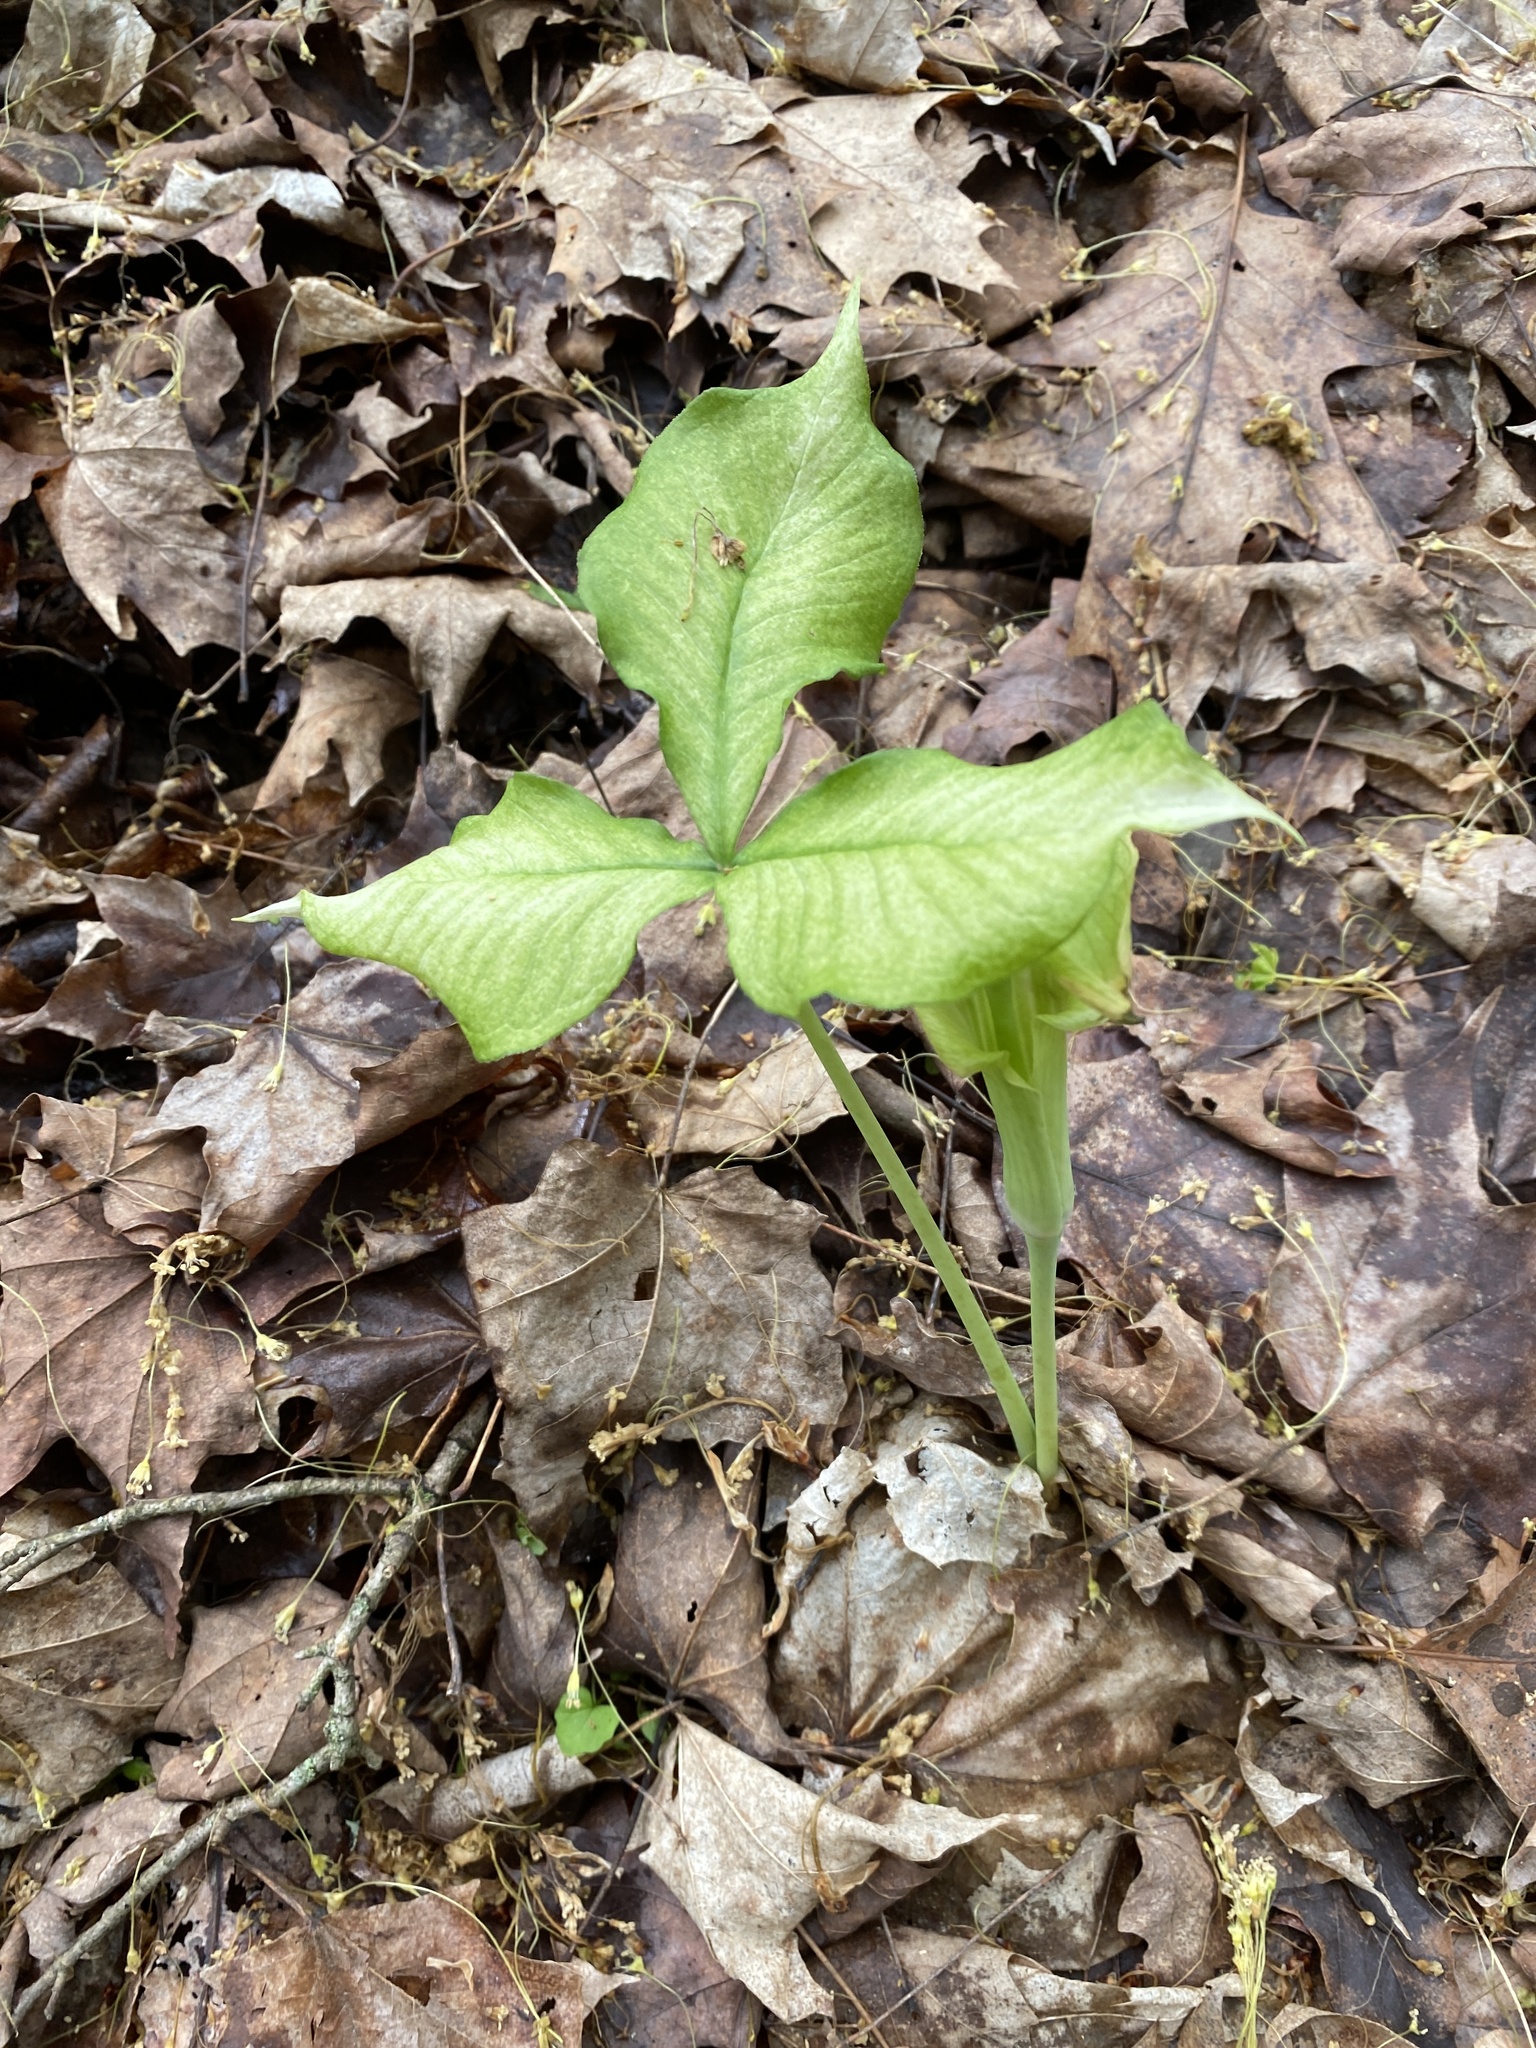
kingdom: Plantae
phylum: Tracheophyta
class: Liliopsida
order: Alismatales
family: Araceae
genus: Arisaema
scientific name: Arisaema triphyllum
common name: Jack-in-the-pulpit
